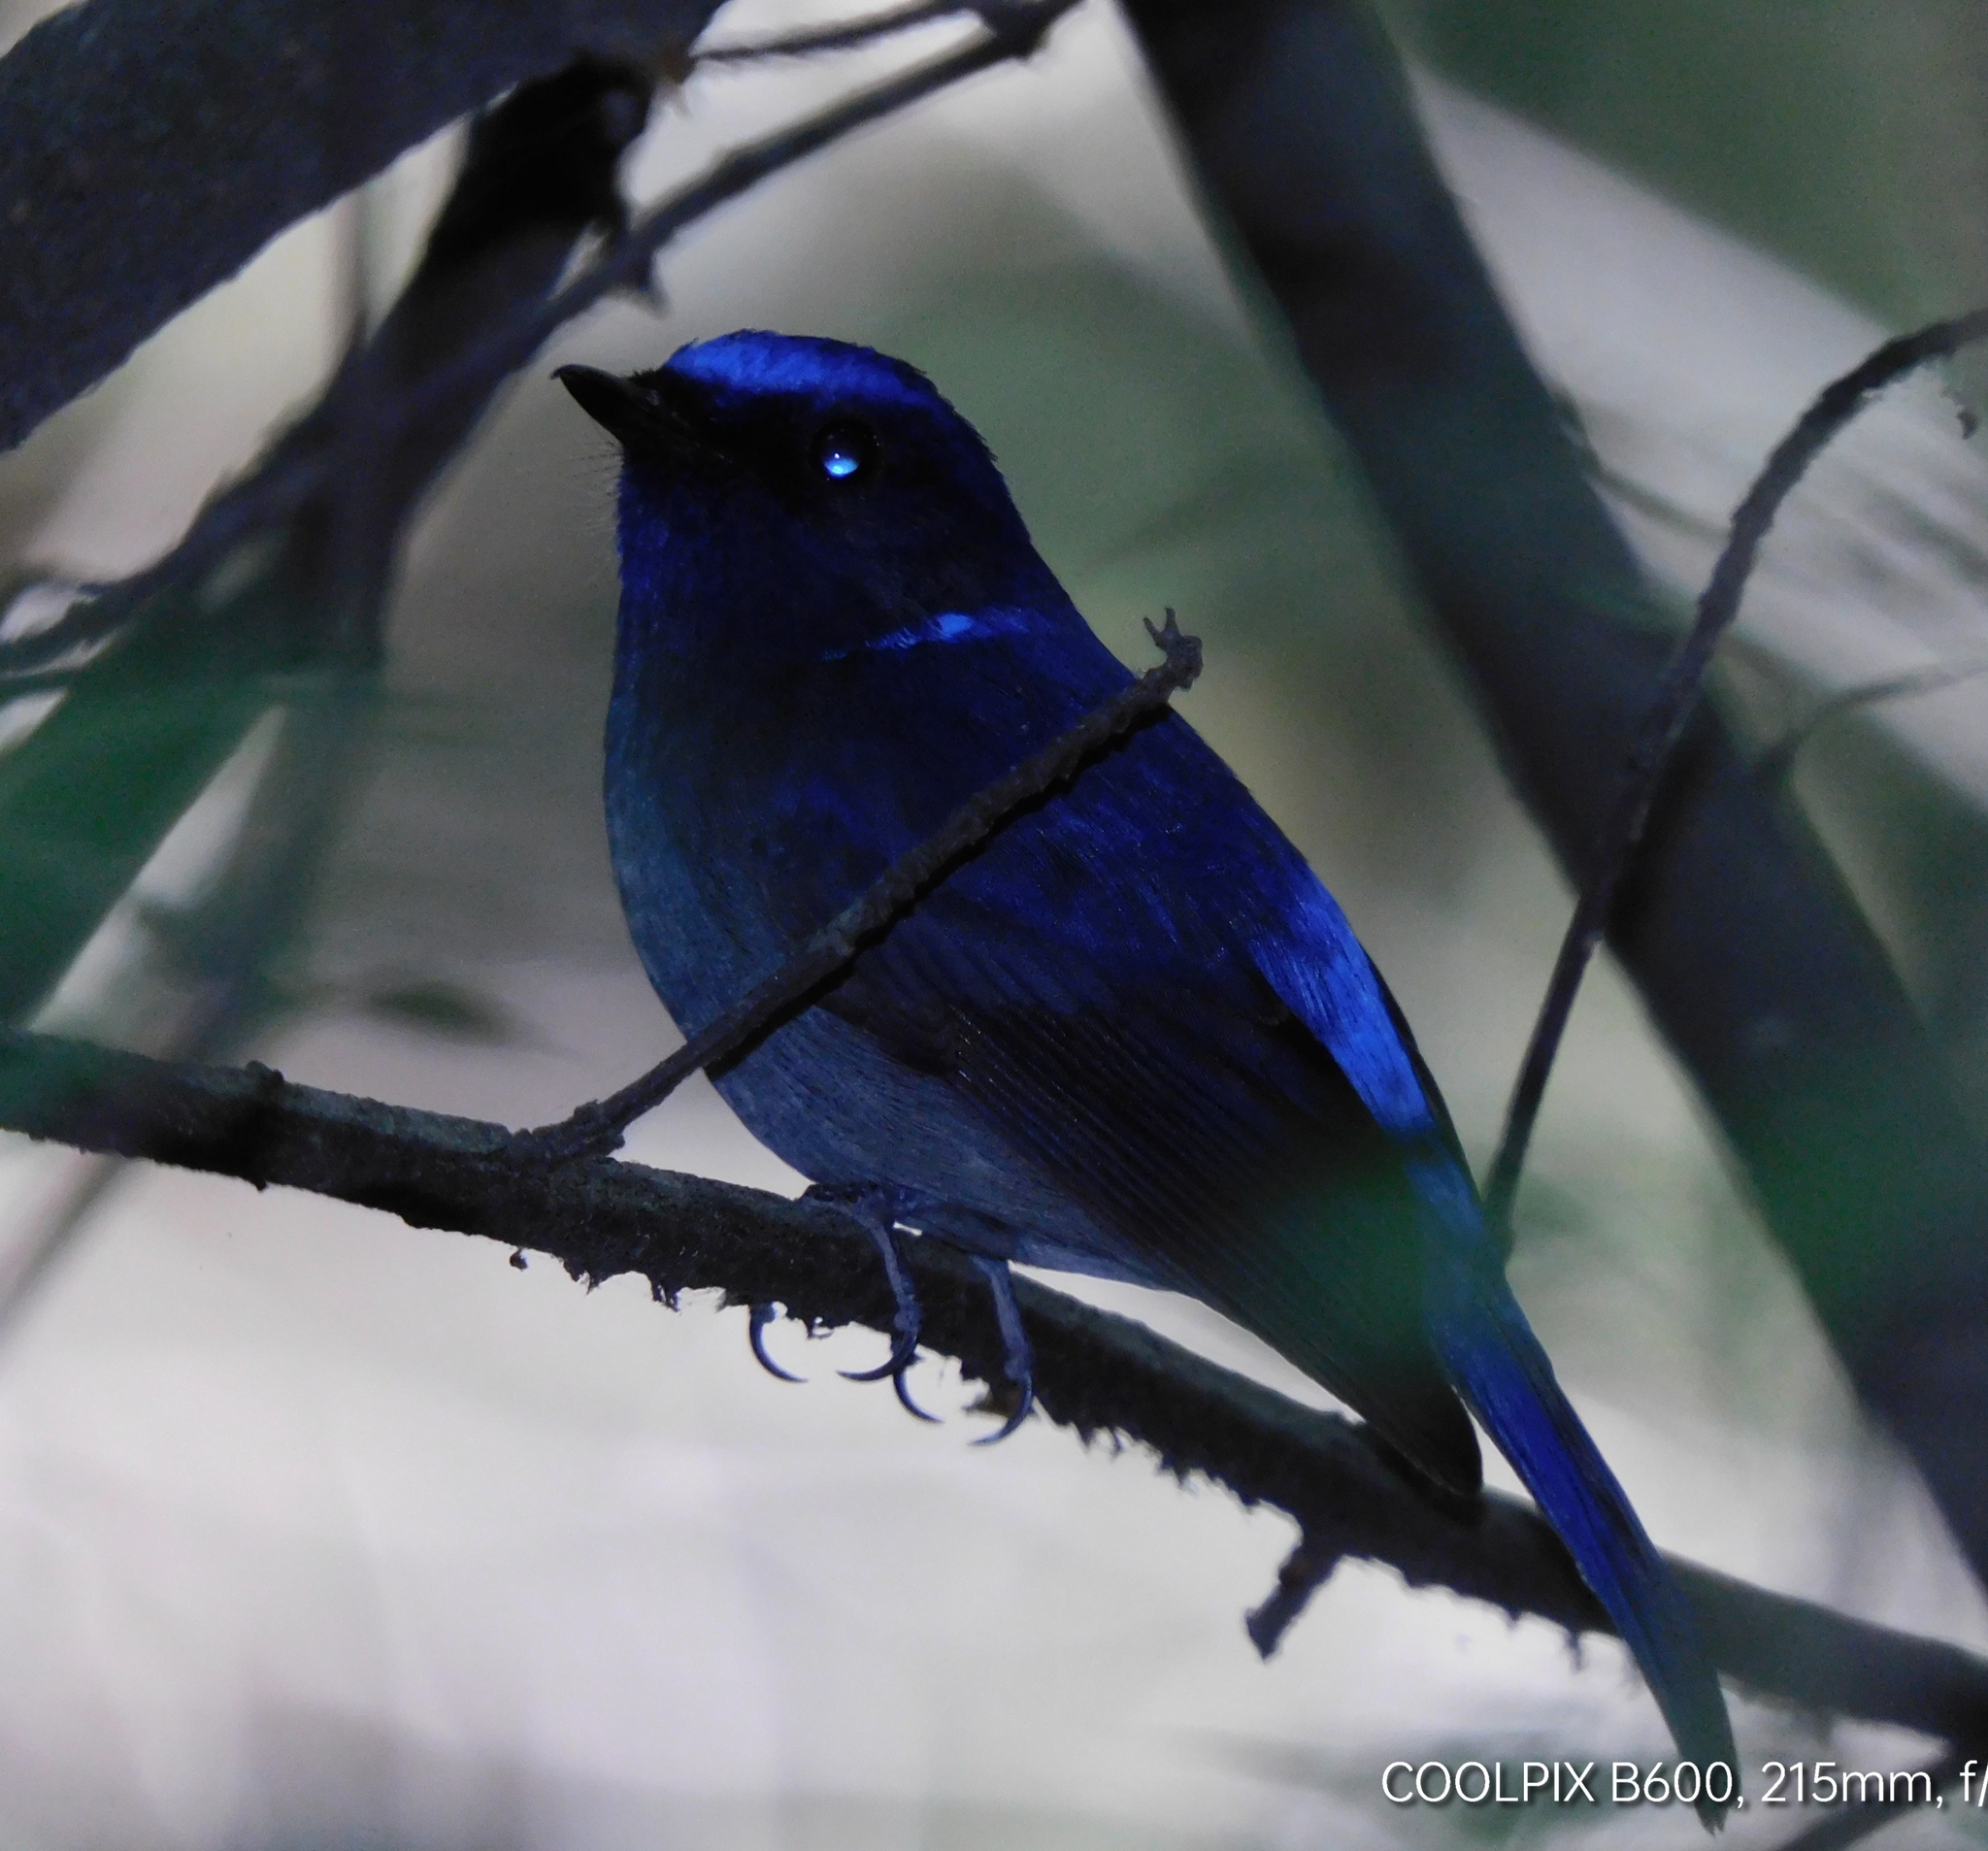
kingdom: Animalia
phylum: Chordata
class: Aves
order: Passeriformes
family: Muscicapidae
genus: Niltava
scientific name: Niltava macgrigoriae
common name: Small niltava
